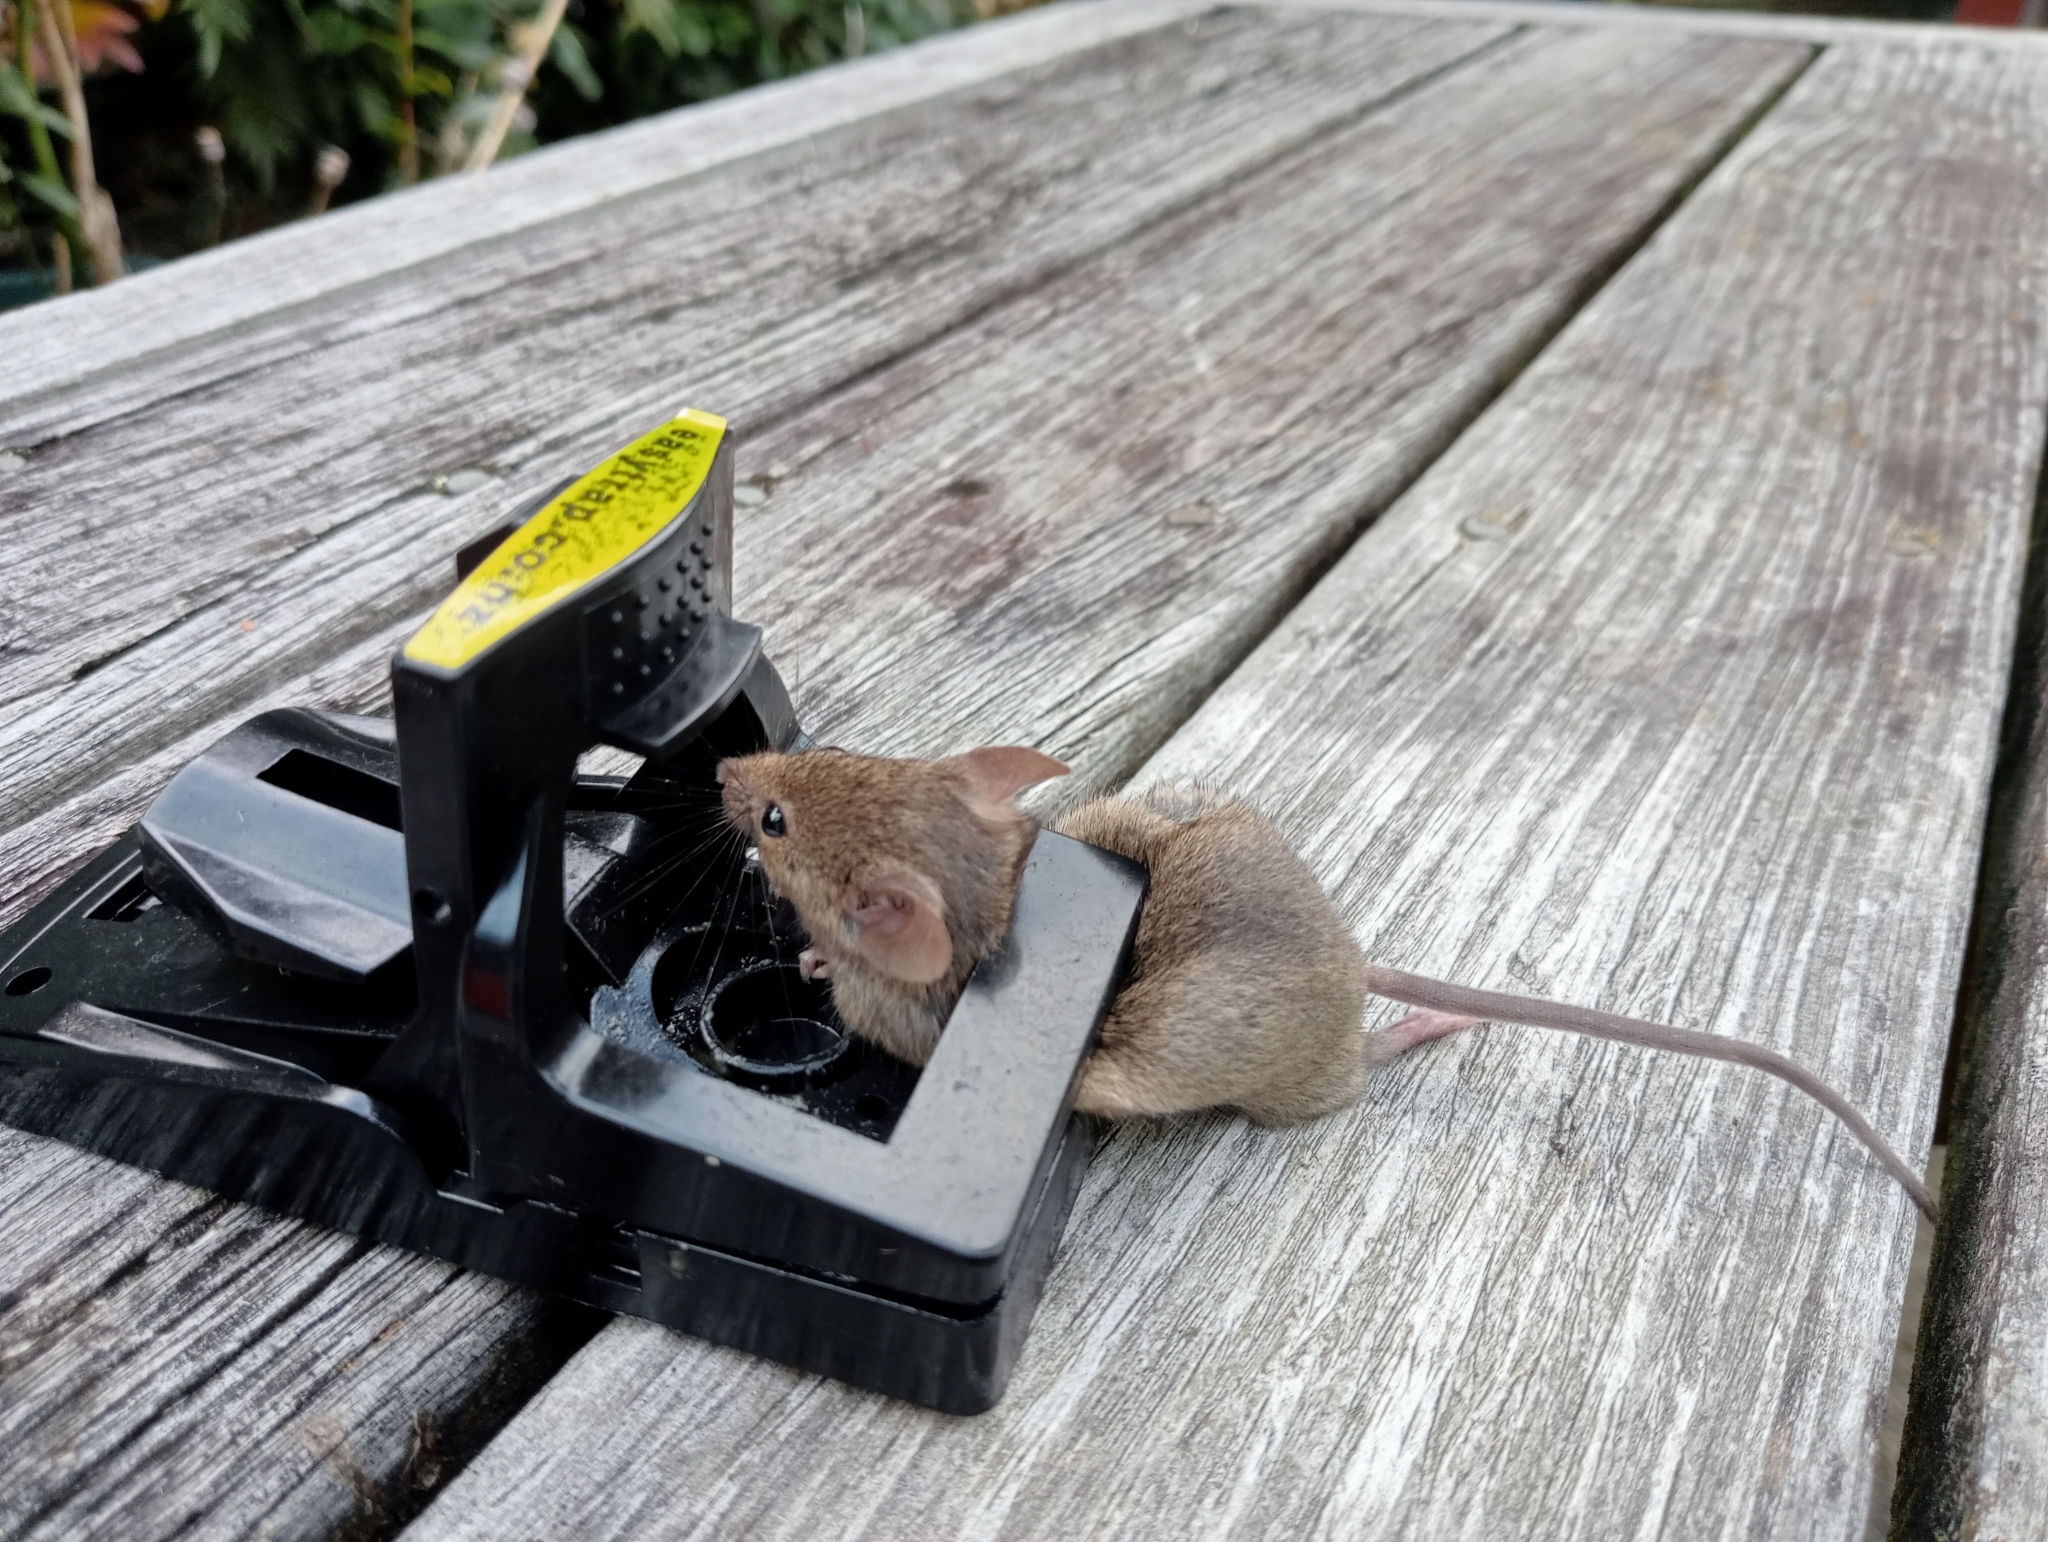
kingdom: Animalia
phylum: Chordata
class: Mammalia
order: Rodentia
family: Muridae
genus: Mus
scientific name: Mus musculus
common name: House mouse
